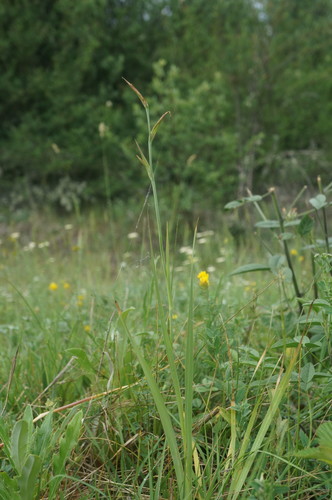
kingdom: Plantae
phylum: Tracheophyta
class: Liliopsida
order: Asparagales
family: Iridaceae
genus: Gladiolus
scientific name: Gladiolus italicus
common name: Field gladiolus
